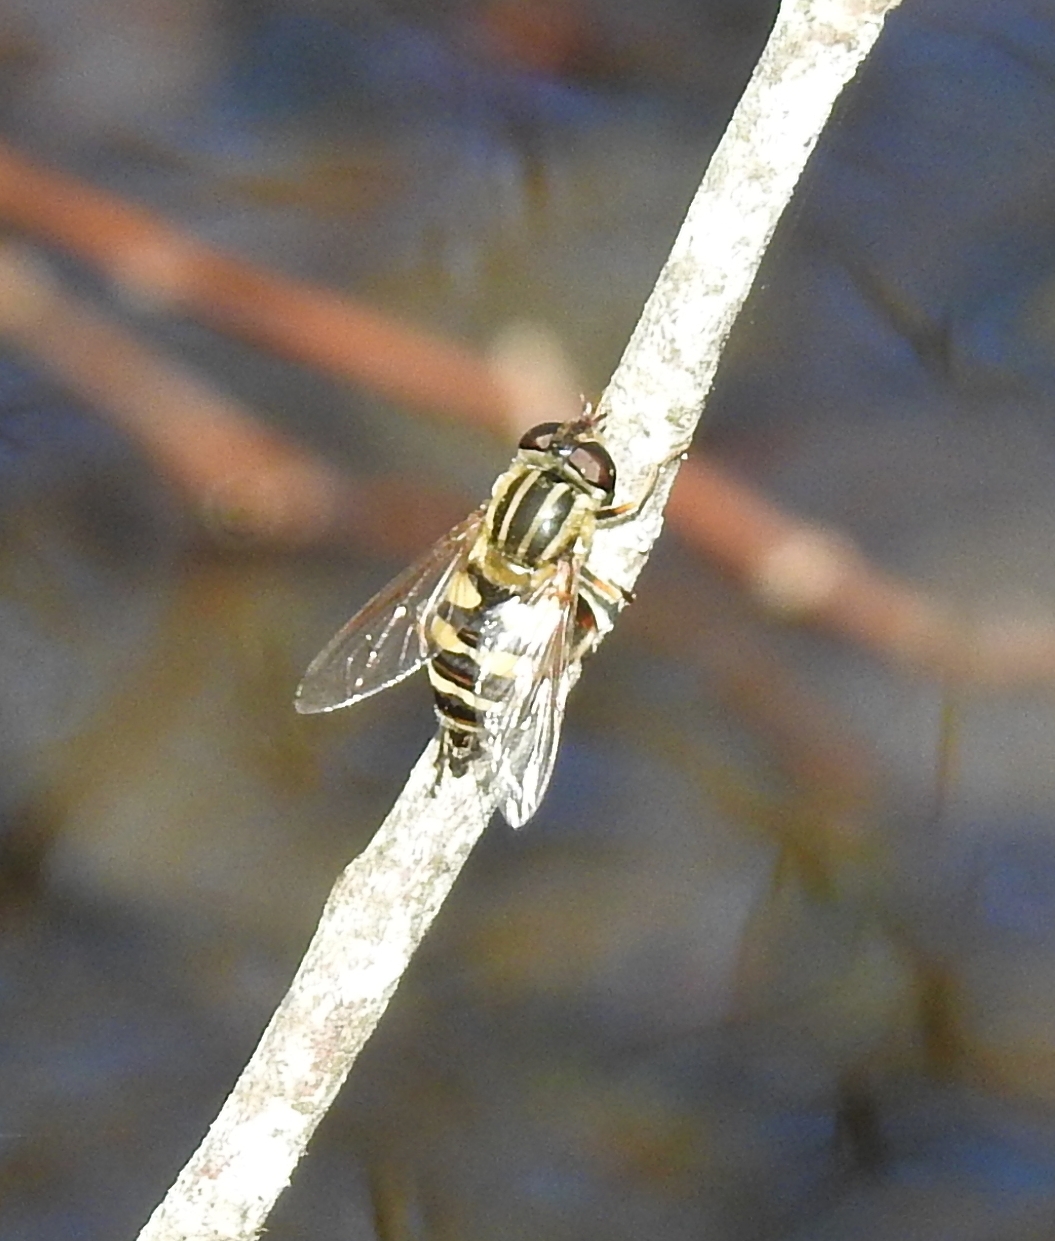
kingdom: Animalia
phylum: Arthropoda
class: Insecta
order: Diptera
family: Syrphidae
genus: Helophilus
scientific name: Helophilus fasciatus
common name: Narrow-headed marsh fly
